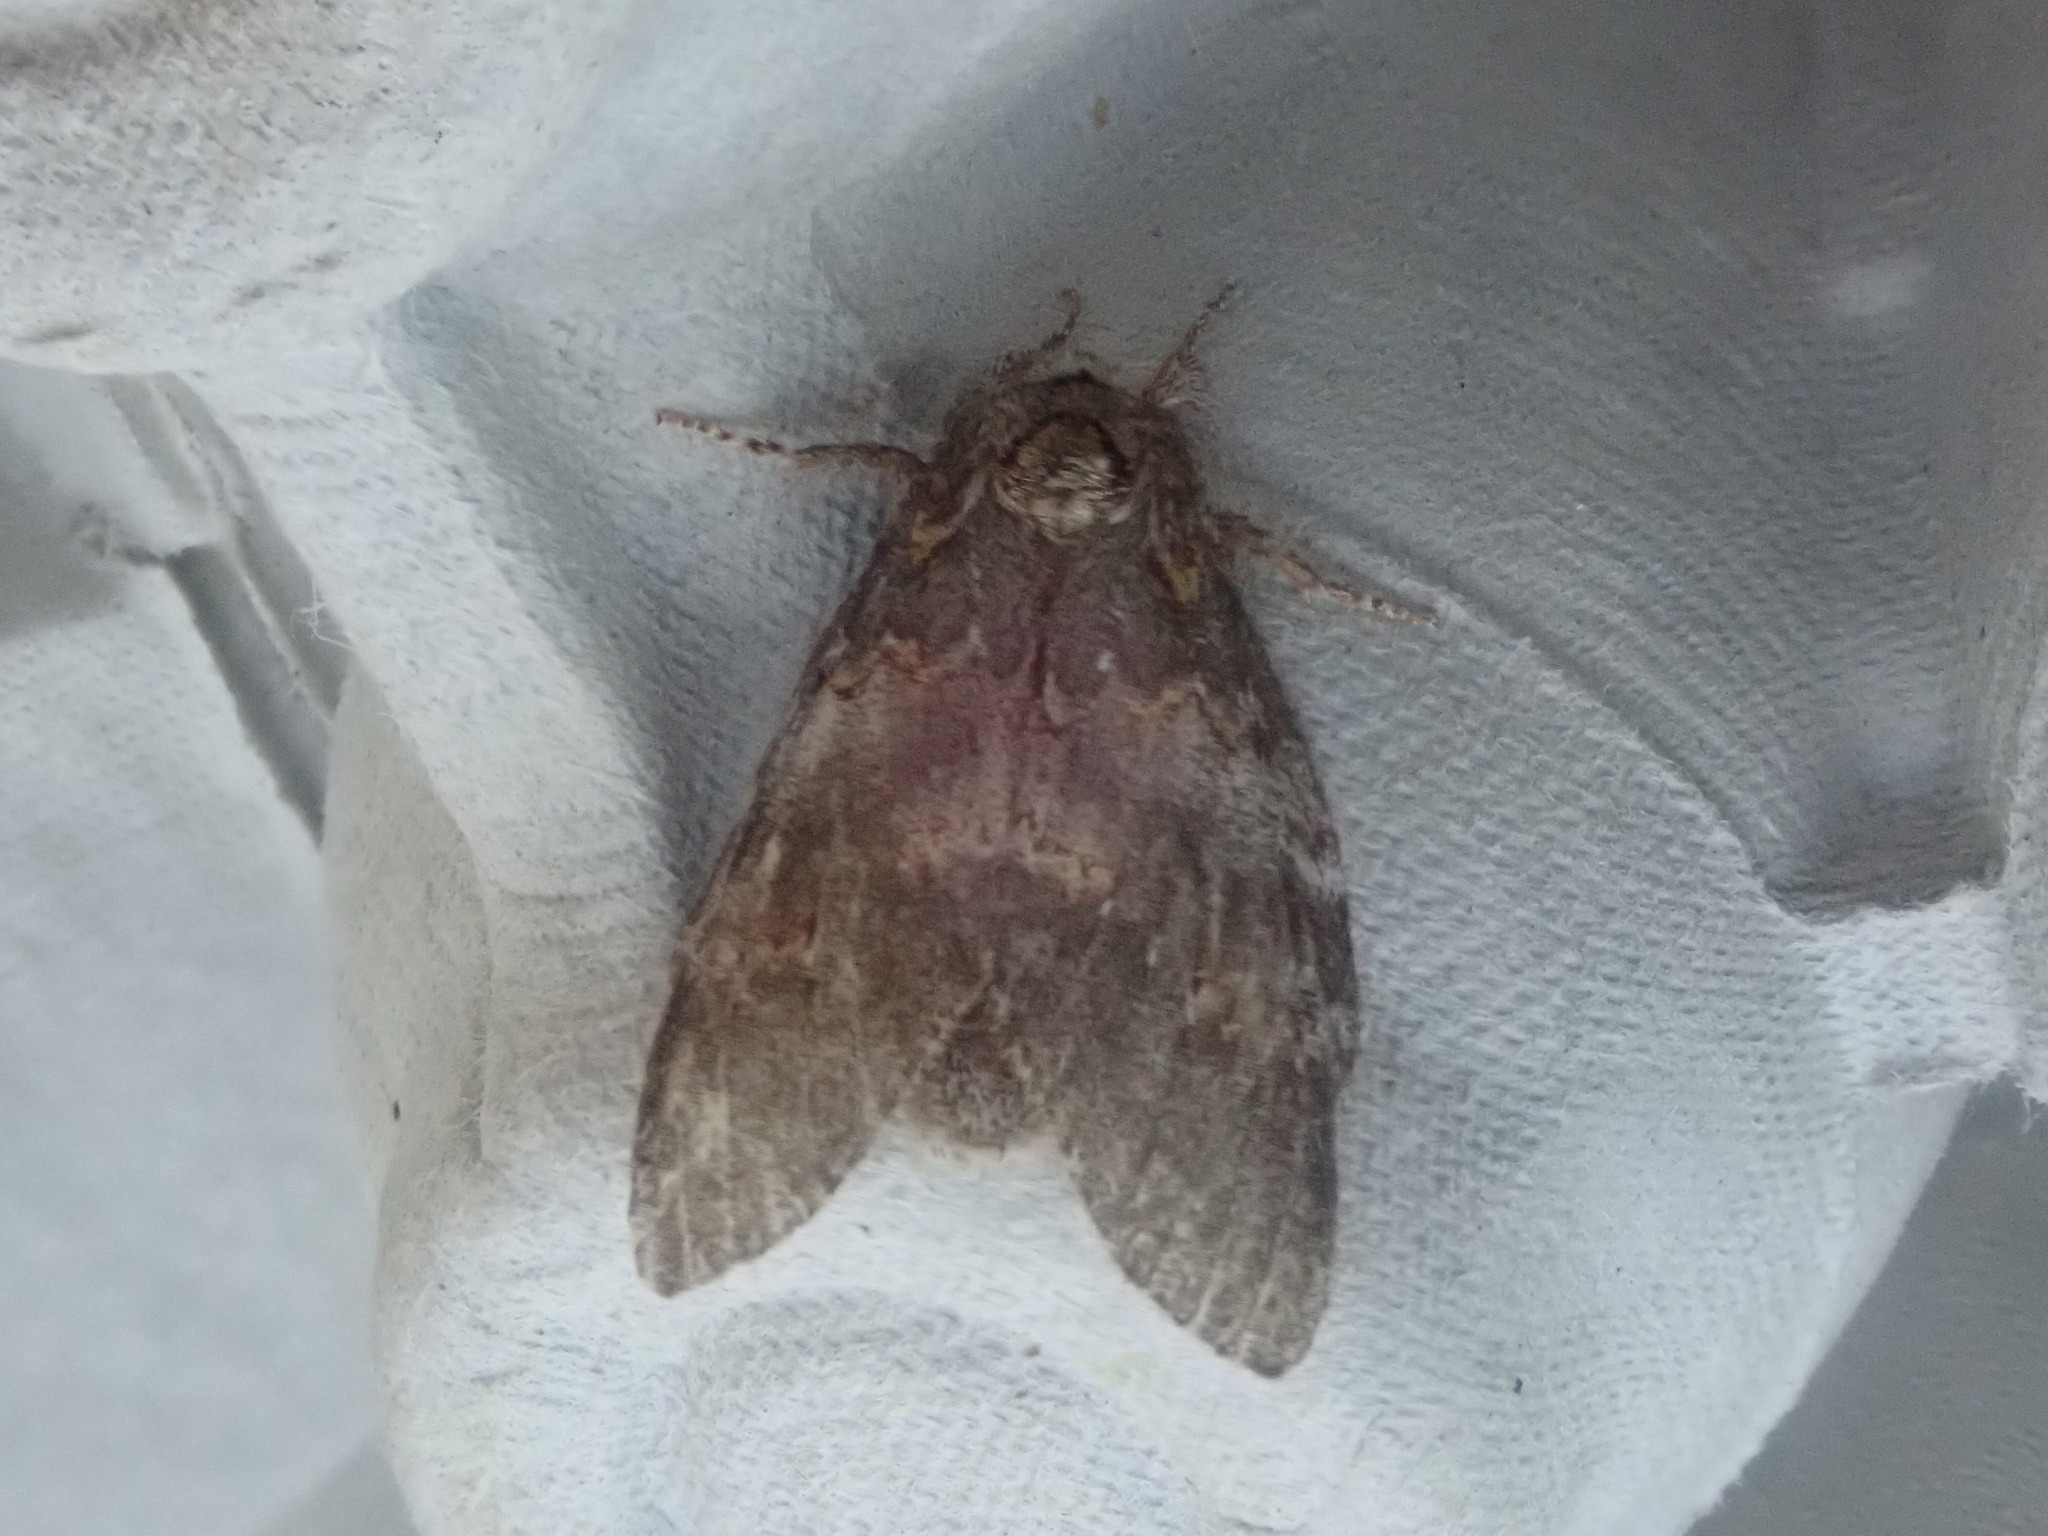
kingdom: Animalia
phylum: Arthropoda
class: Insecta
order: Lepidoptera
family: Notodontidae
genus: Peridea
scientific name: Peridea angulosa
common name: Angulose prominent
